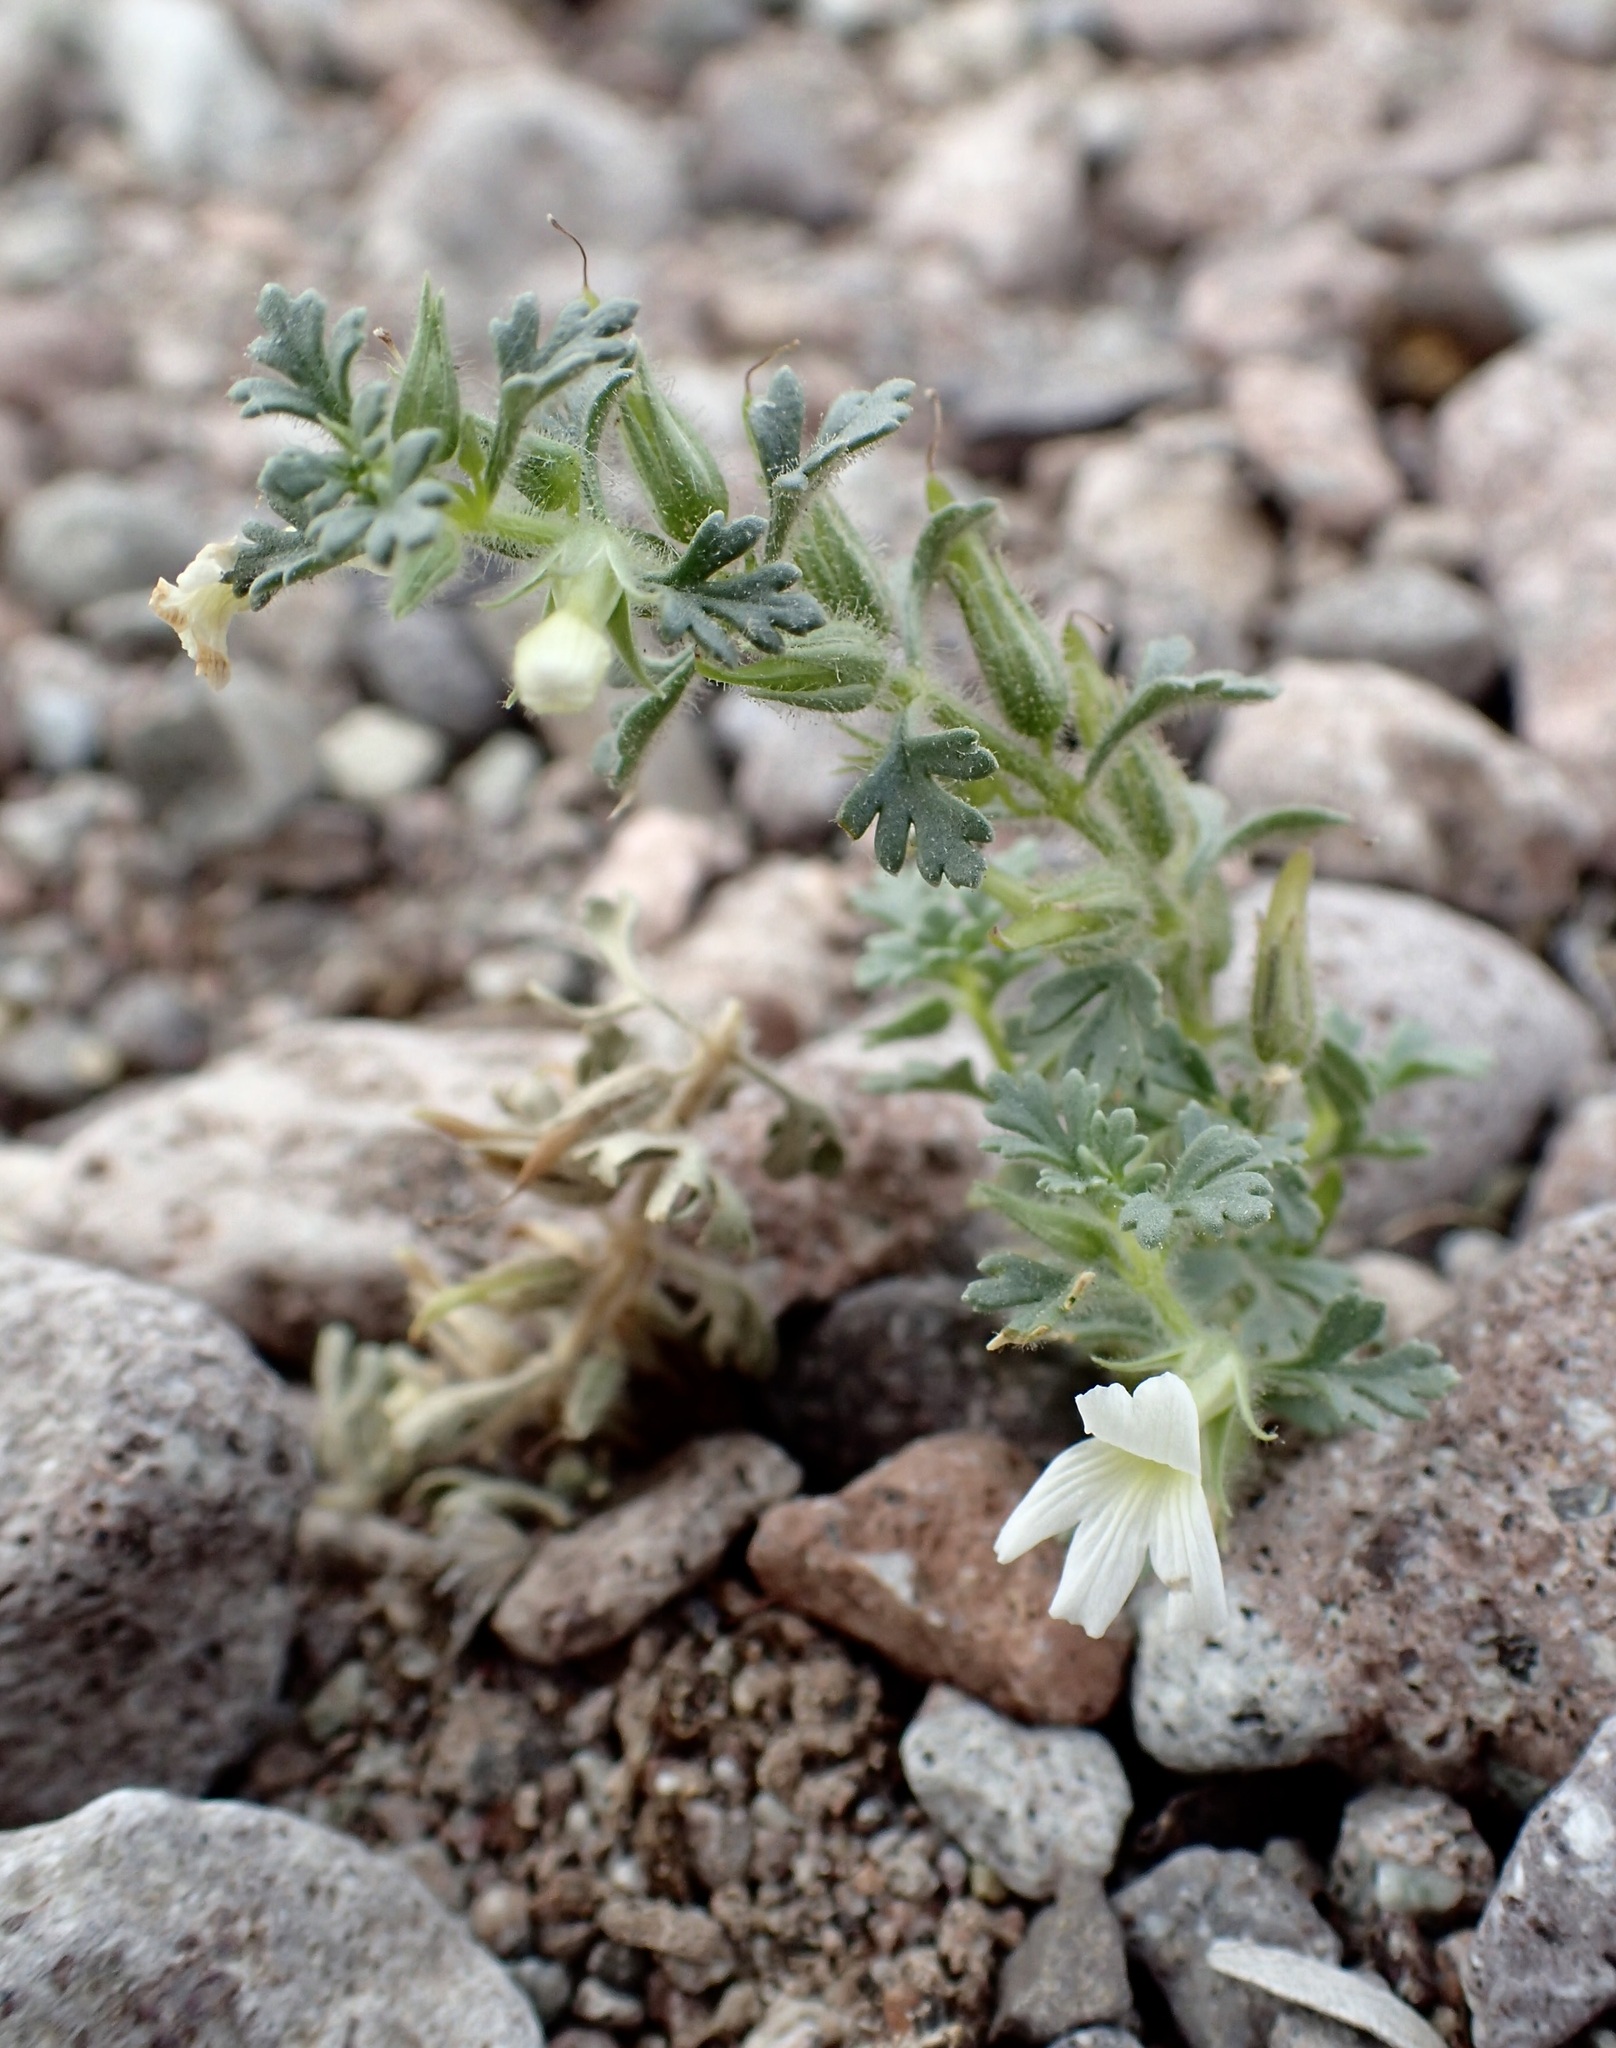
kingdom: Plantae
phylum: Tracheophyta
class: Magnoliopsida
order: Lamiales
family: Plantaginaceae
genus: Schistophragma
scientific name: Schistophragma polystachyum
